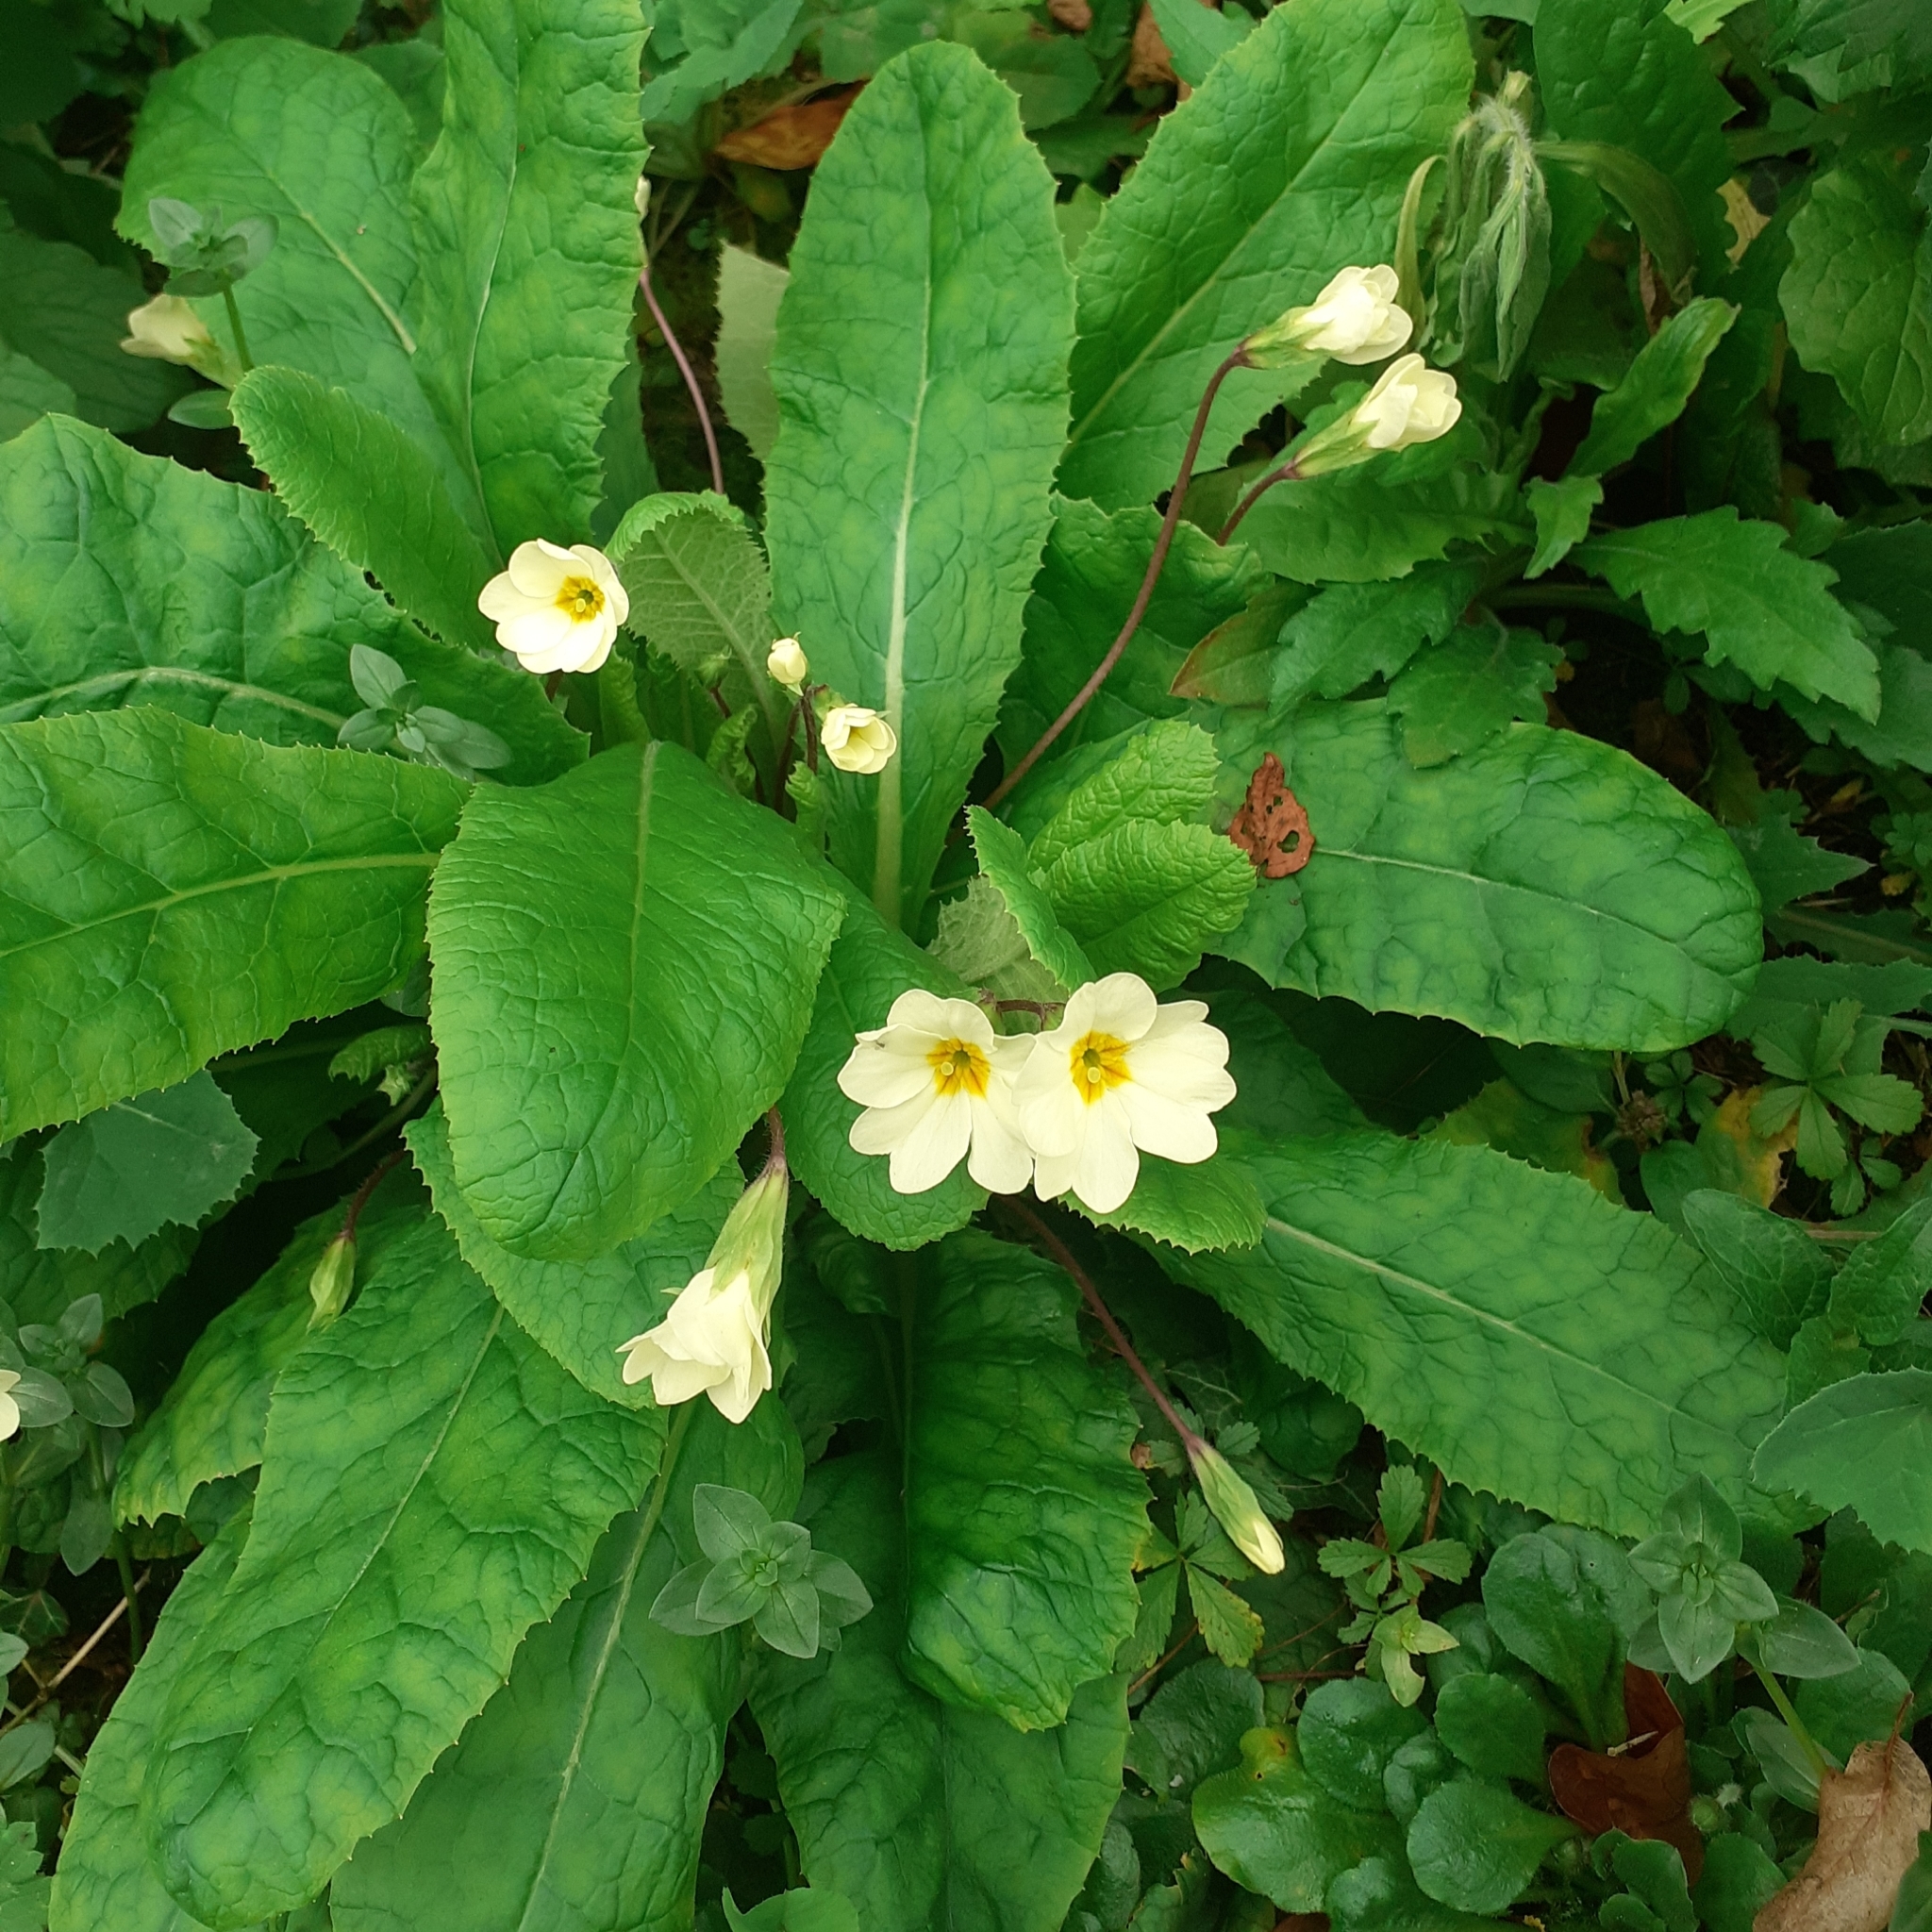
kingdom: Plantae
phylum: Tracheophyta
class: Magnoliopsida
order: Ericales
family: Primulaceae
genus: Primula
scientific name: Primula vulgaris
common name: Primrose
